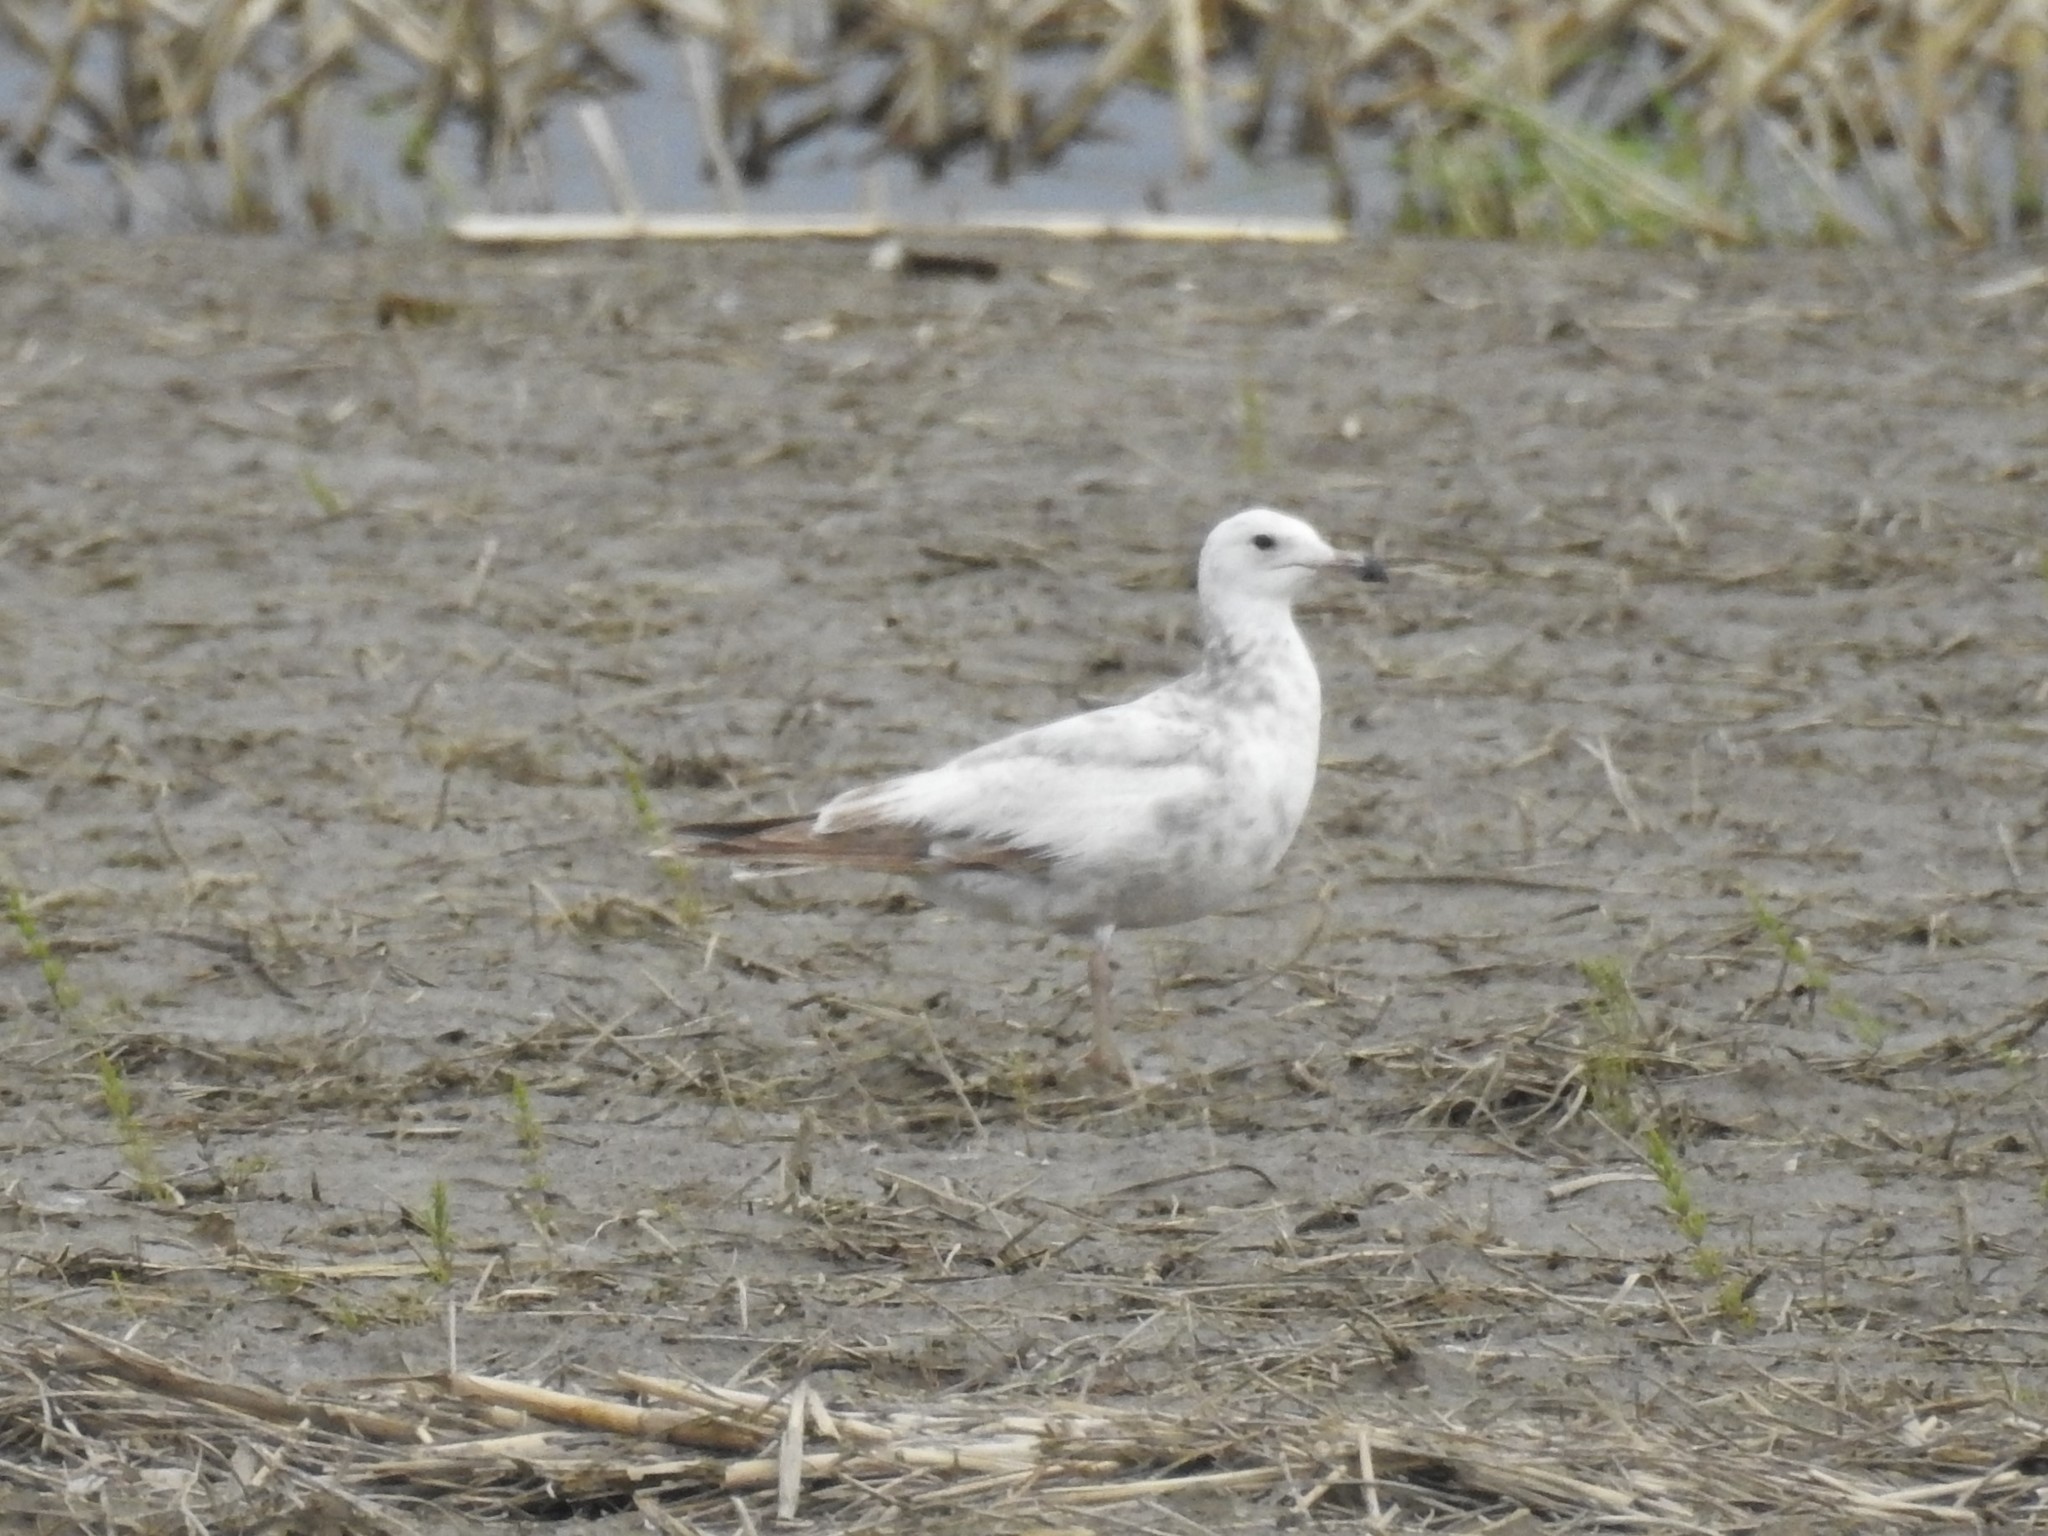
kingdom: Animalia
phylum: Chordata
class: Aves
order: Charadriiformes
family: Laridae
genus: Larus
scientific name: Larus argentatus
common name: Herring gull
